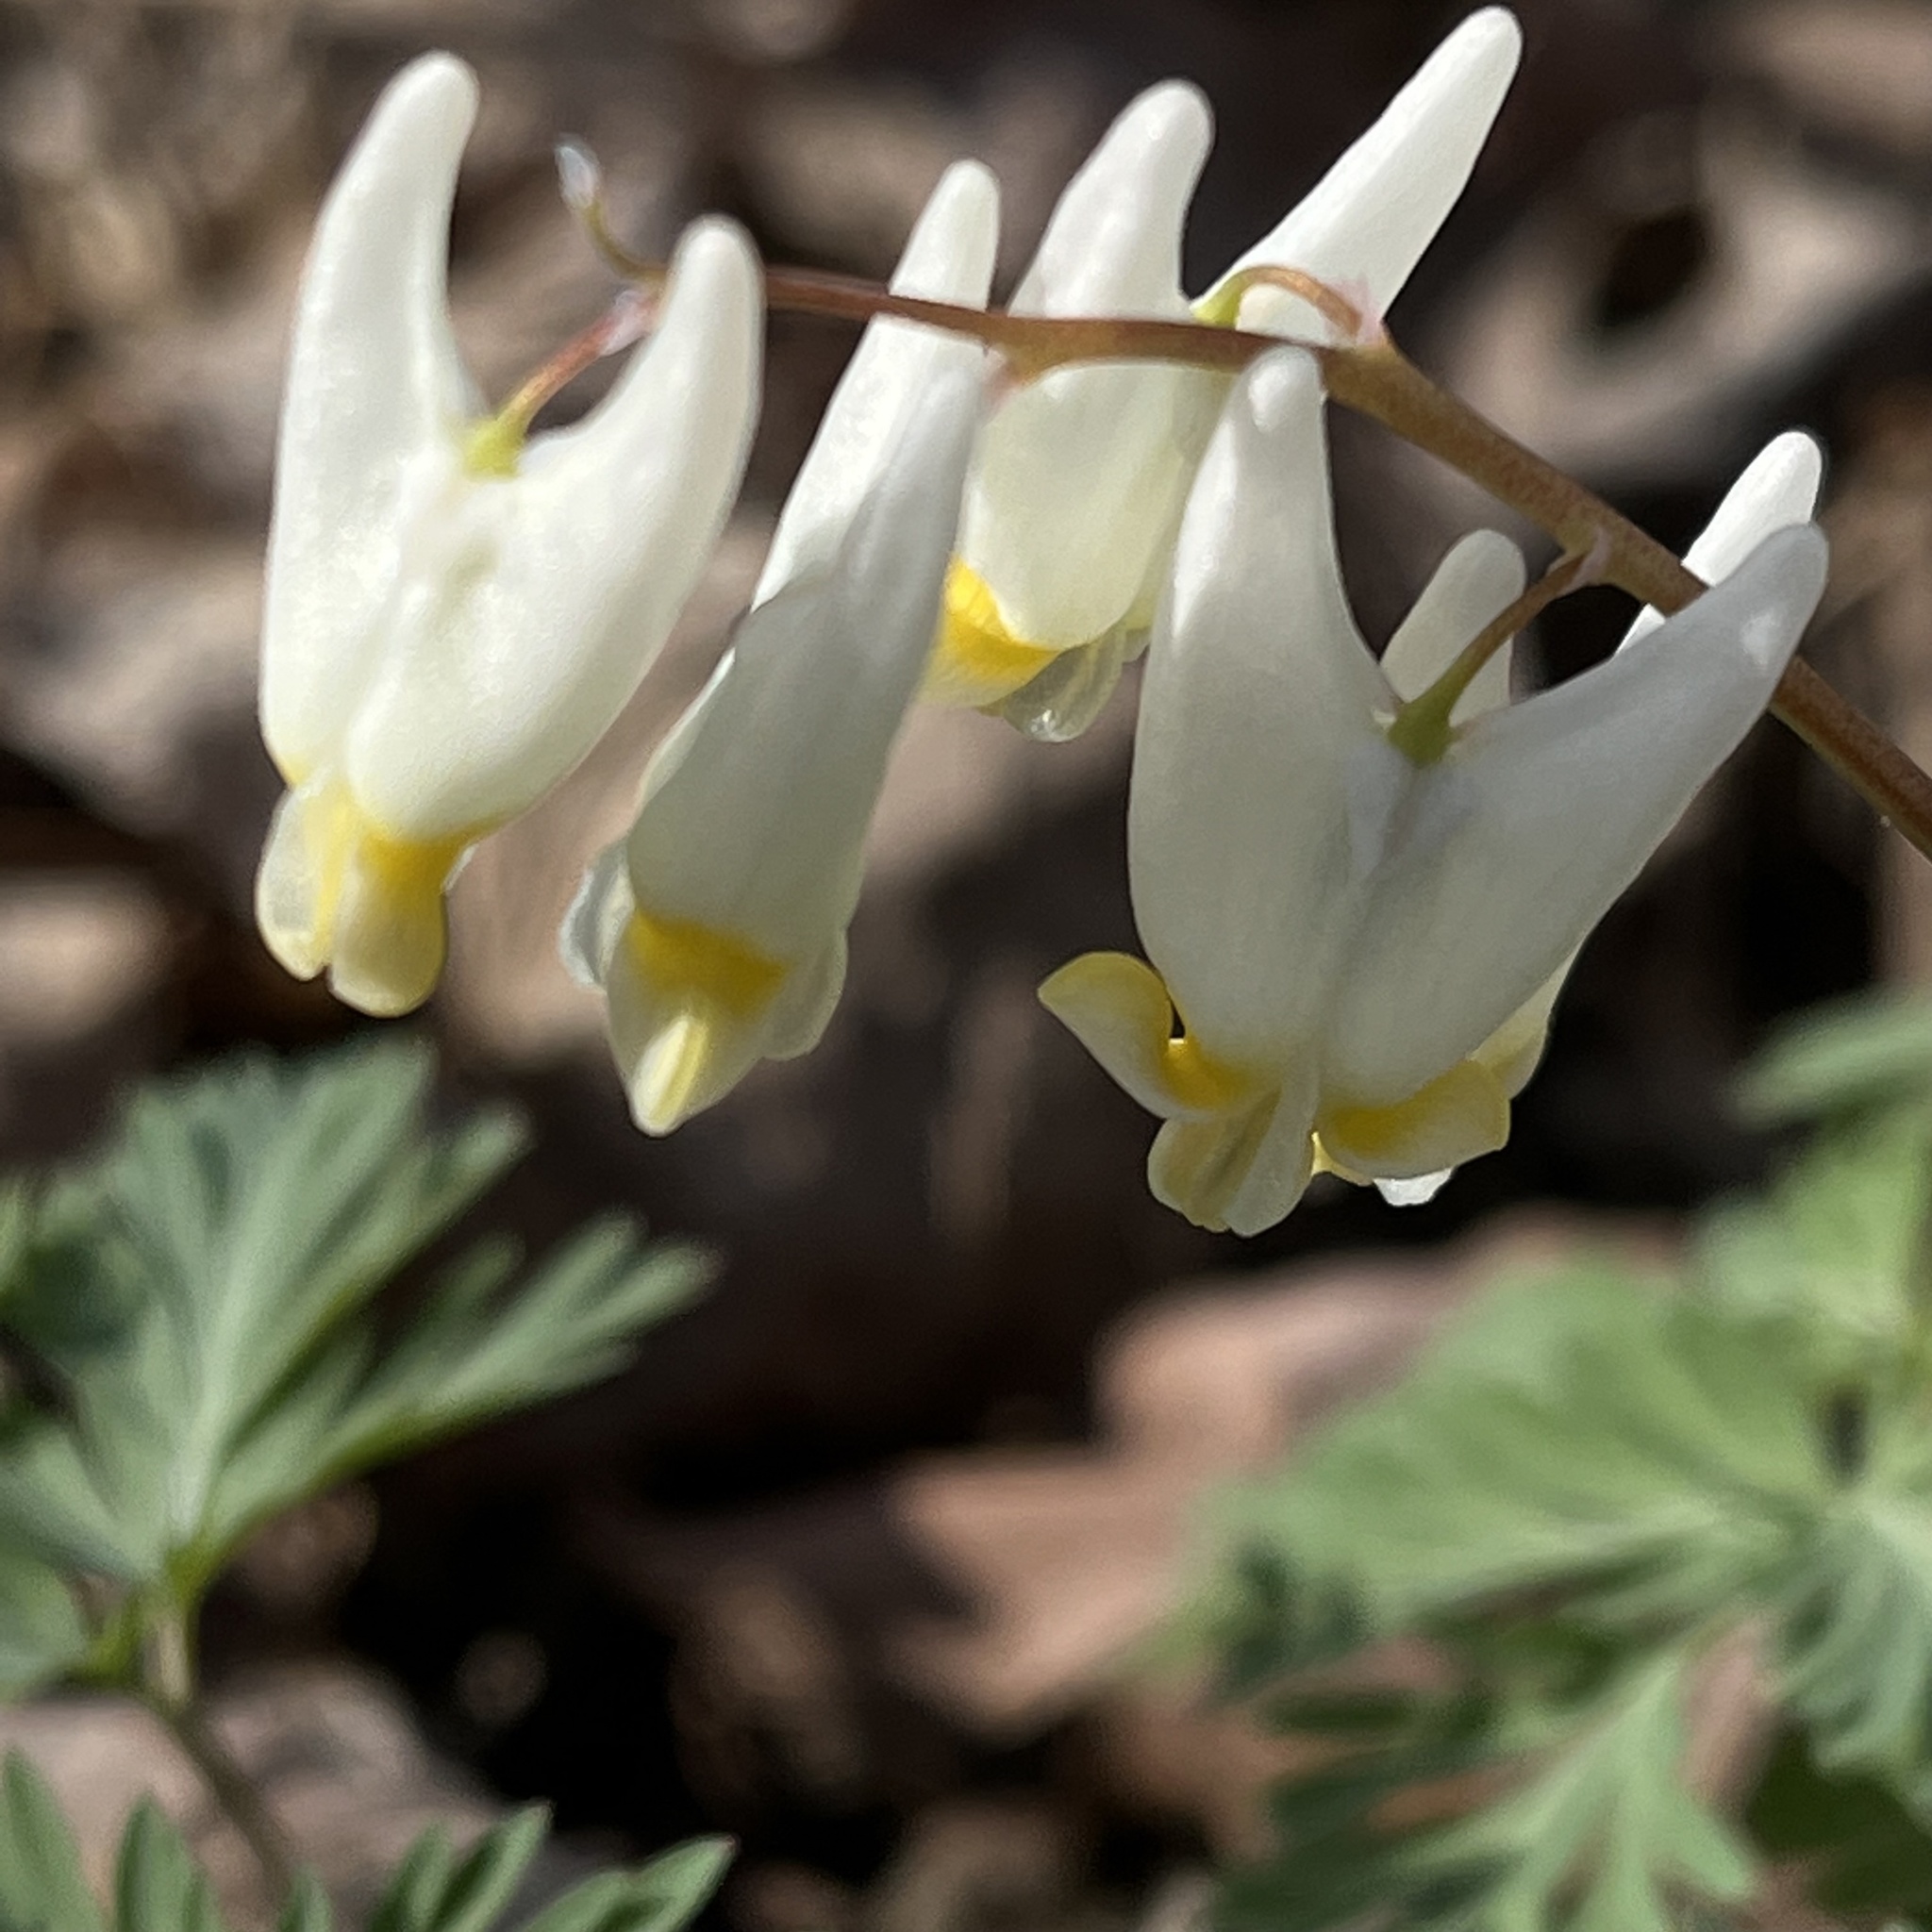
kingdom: Plantae
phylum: Tracheophyta
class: Magnoliopsida
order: Ranunculales
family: Papaveraceae
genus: Dicentra
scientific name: Dicentra cucullaria
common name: Dutchman's breeches
